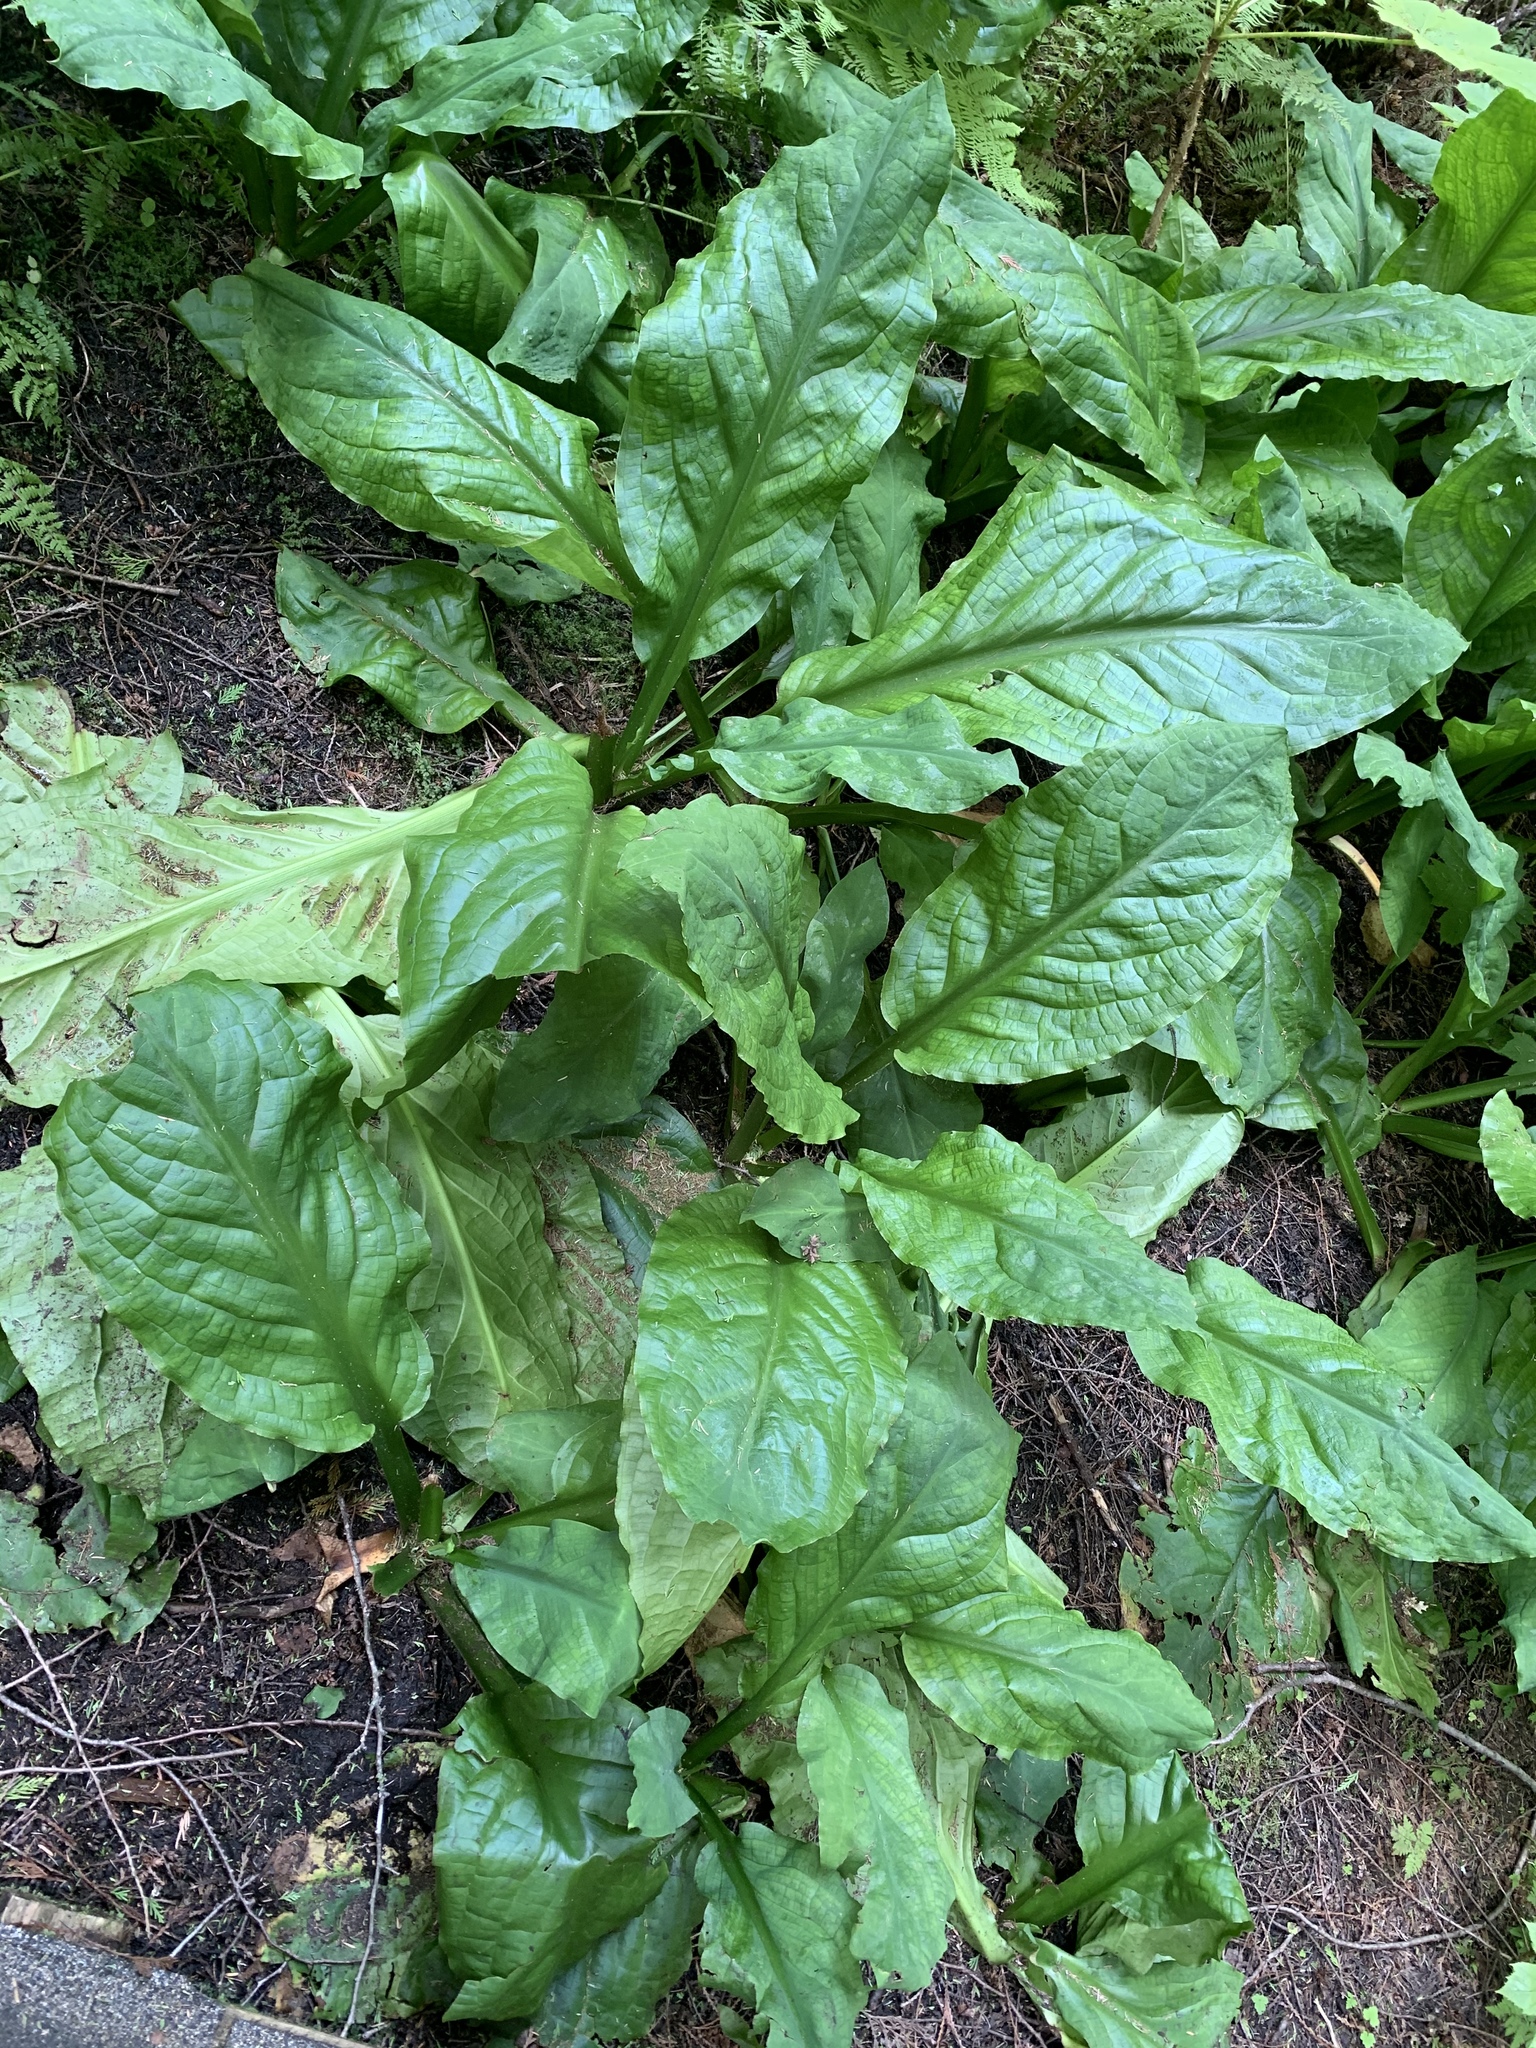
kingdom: Plantae
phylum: Tracheophyta
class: Liliopsida
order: Alismatales
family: Araceae
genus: Lysichiton
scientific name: Lysichiton americanus
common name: American skunk cabbage
